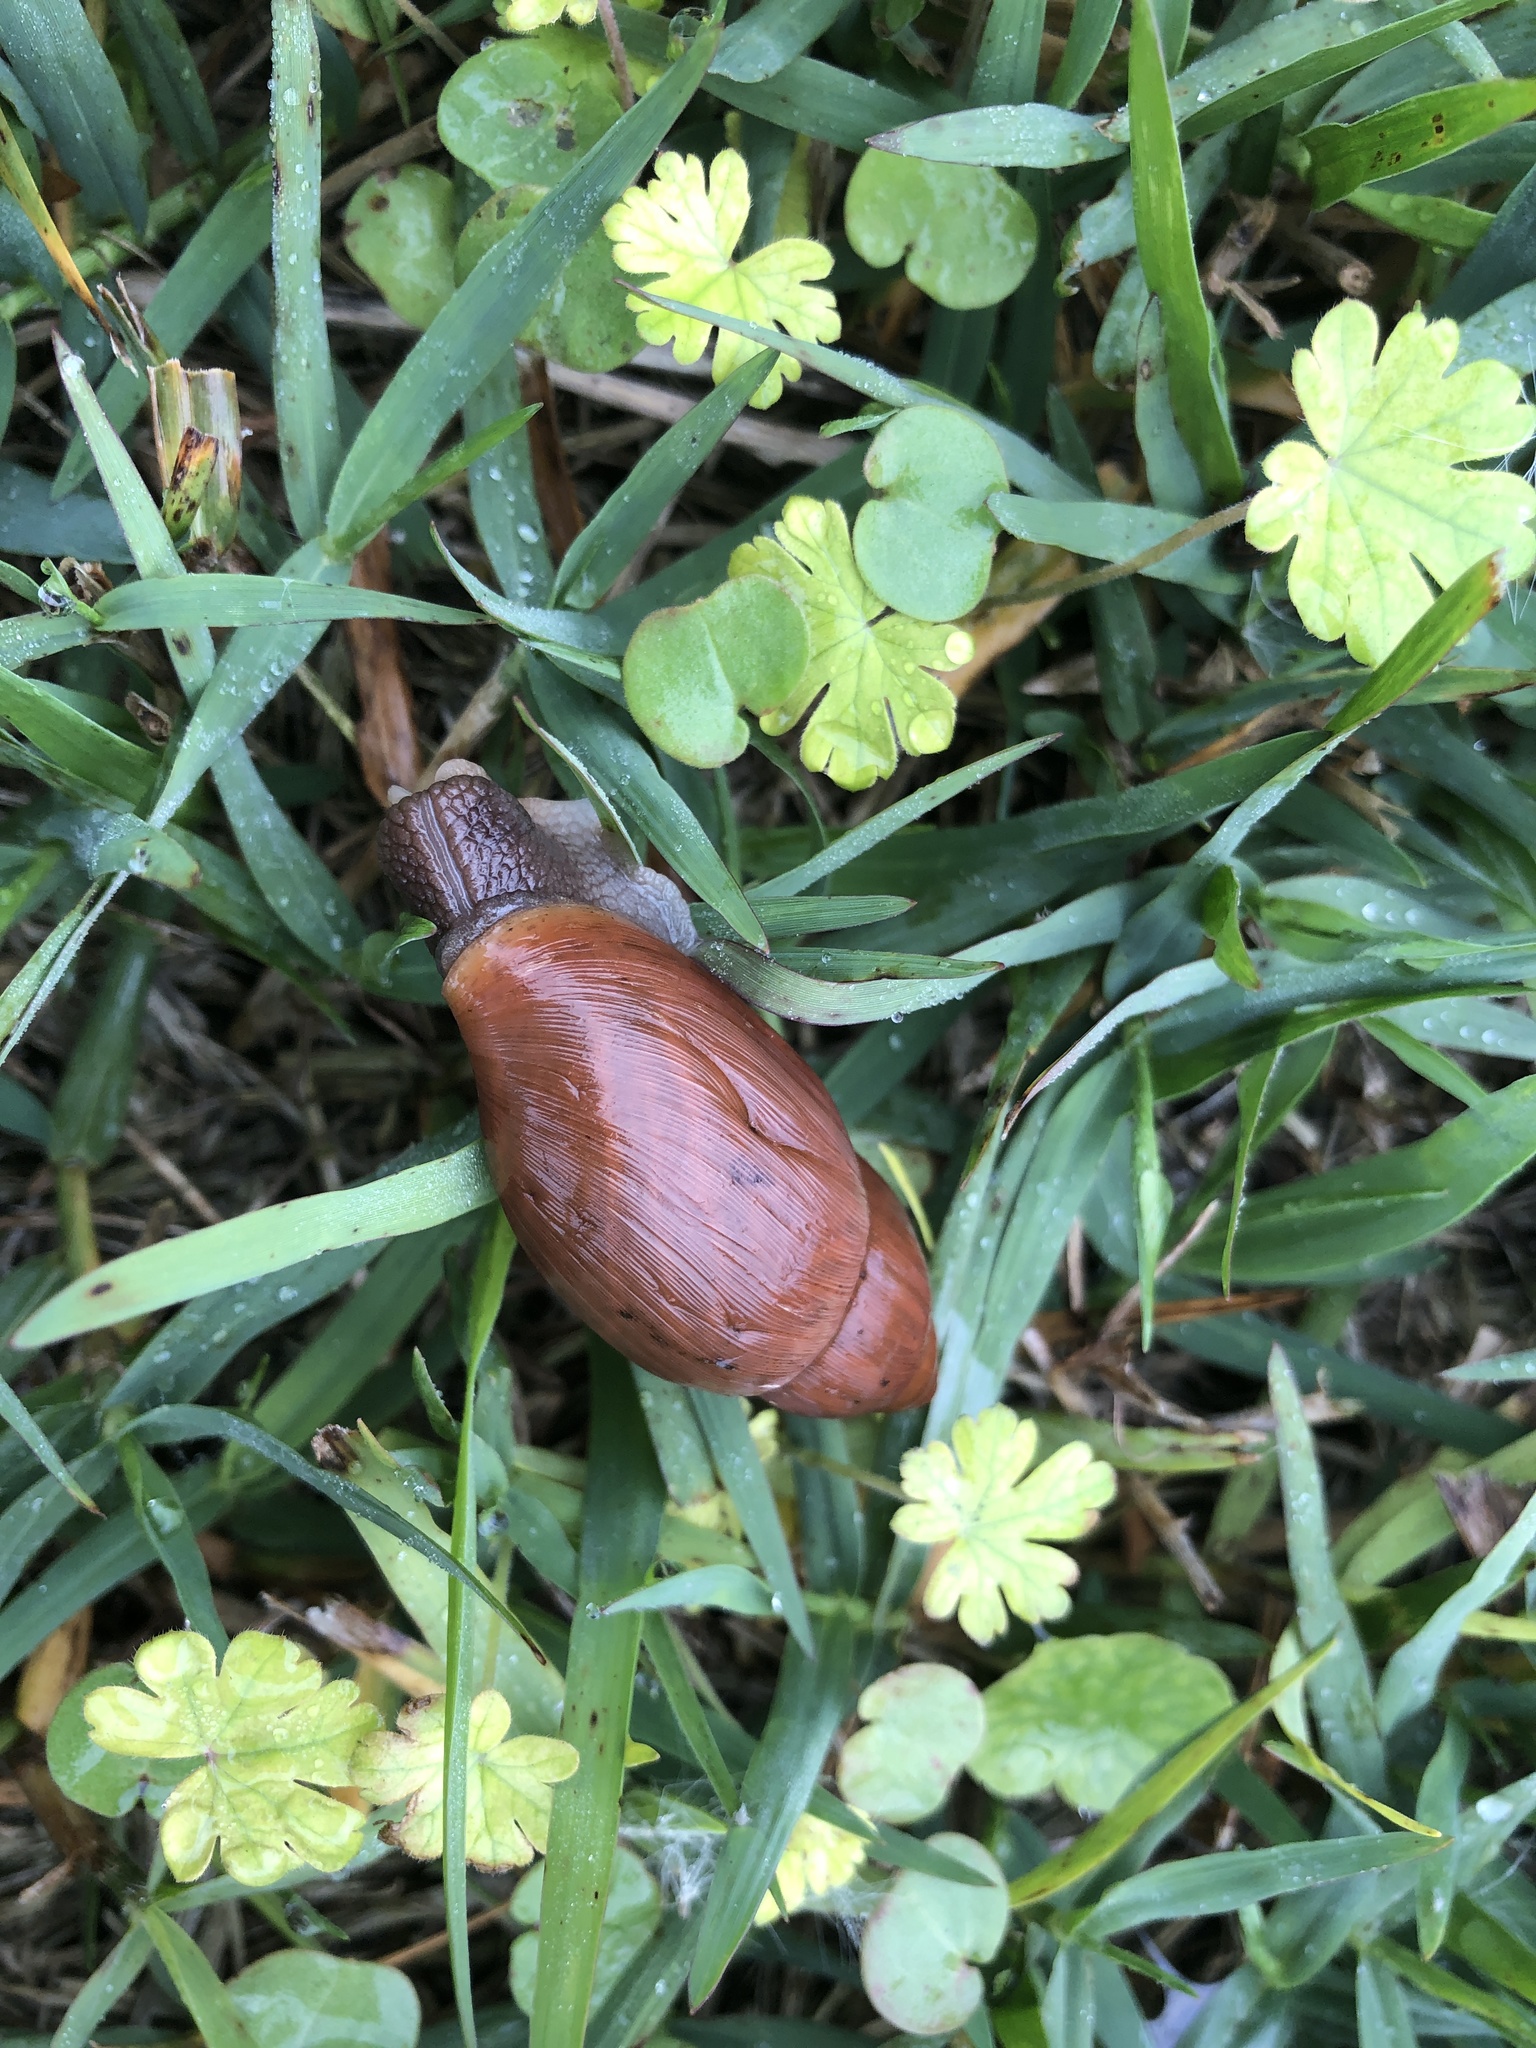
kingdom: Animalia
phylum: Mollusca
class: Gastropoda
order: Stylommatophora
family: Spiraxidae
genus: Euglandina
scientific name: Euglandina rosea
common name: Rosy wolfsnail
